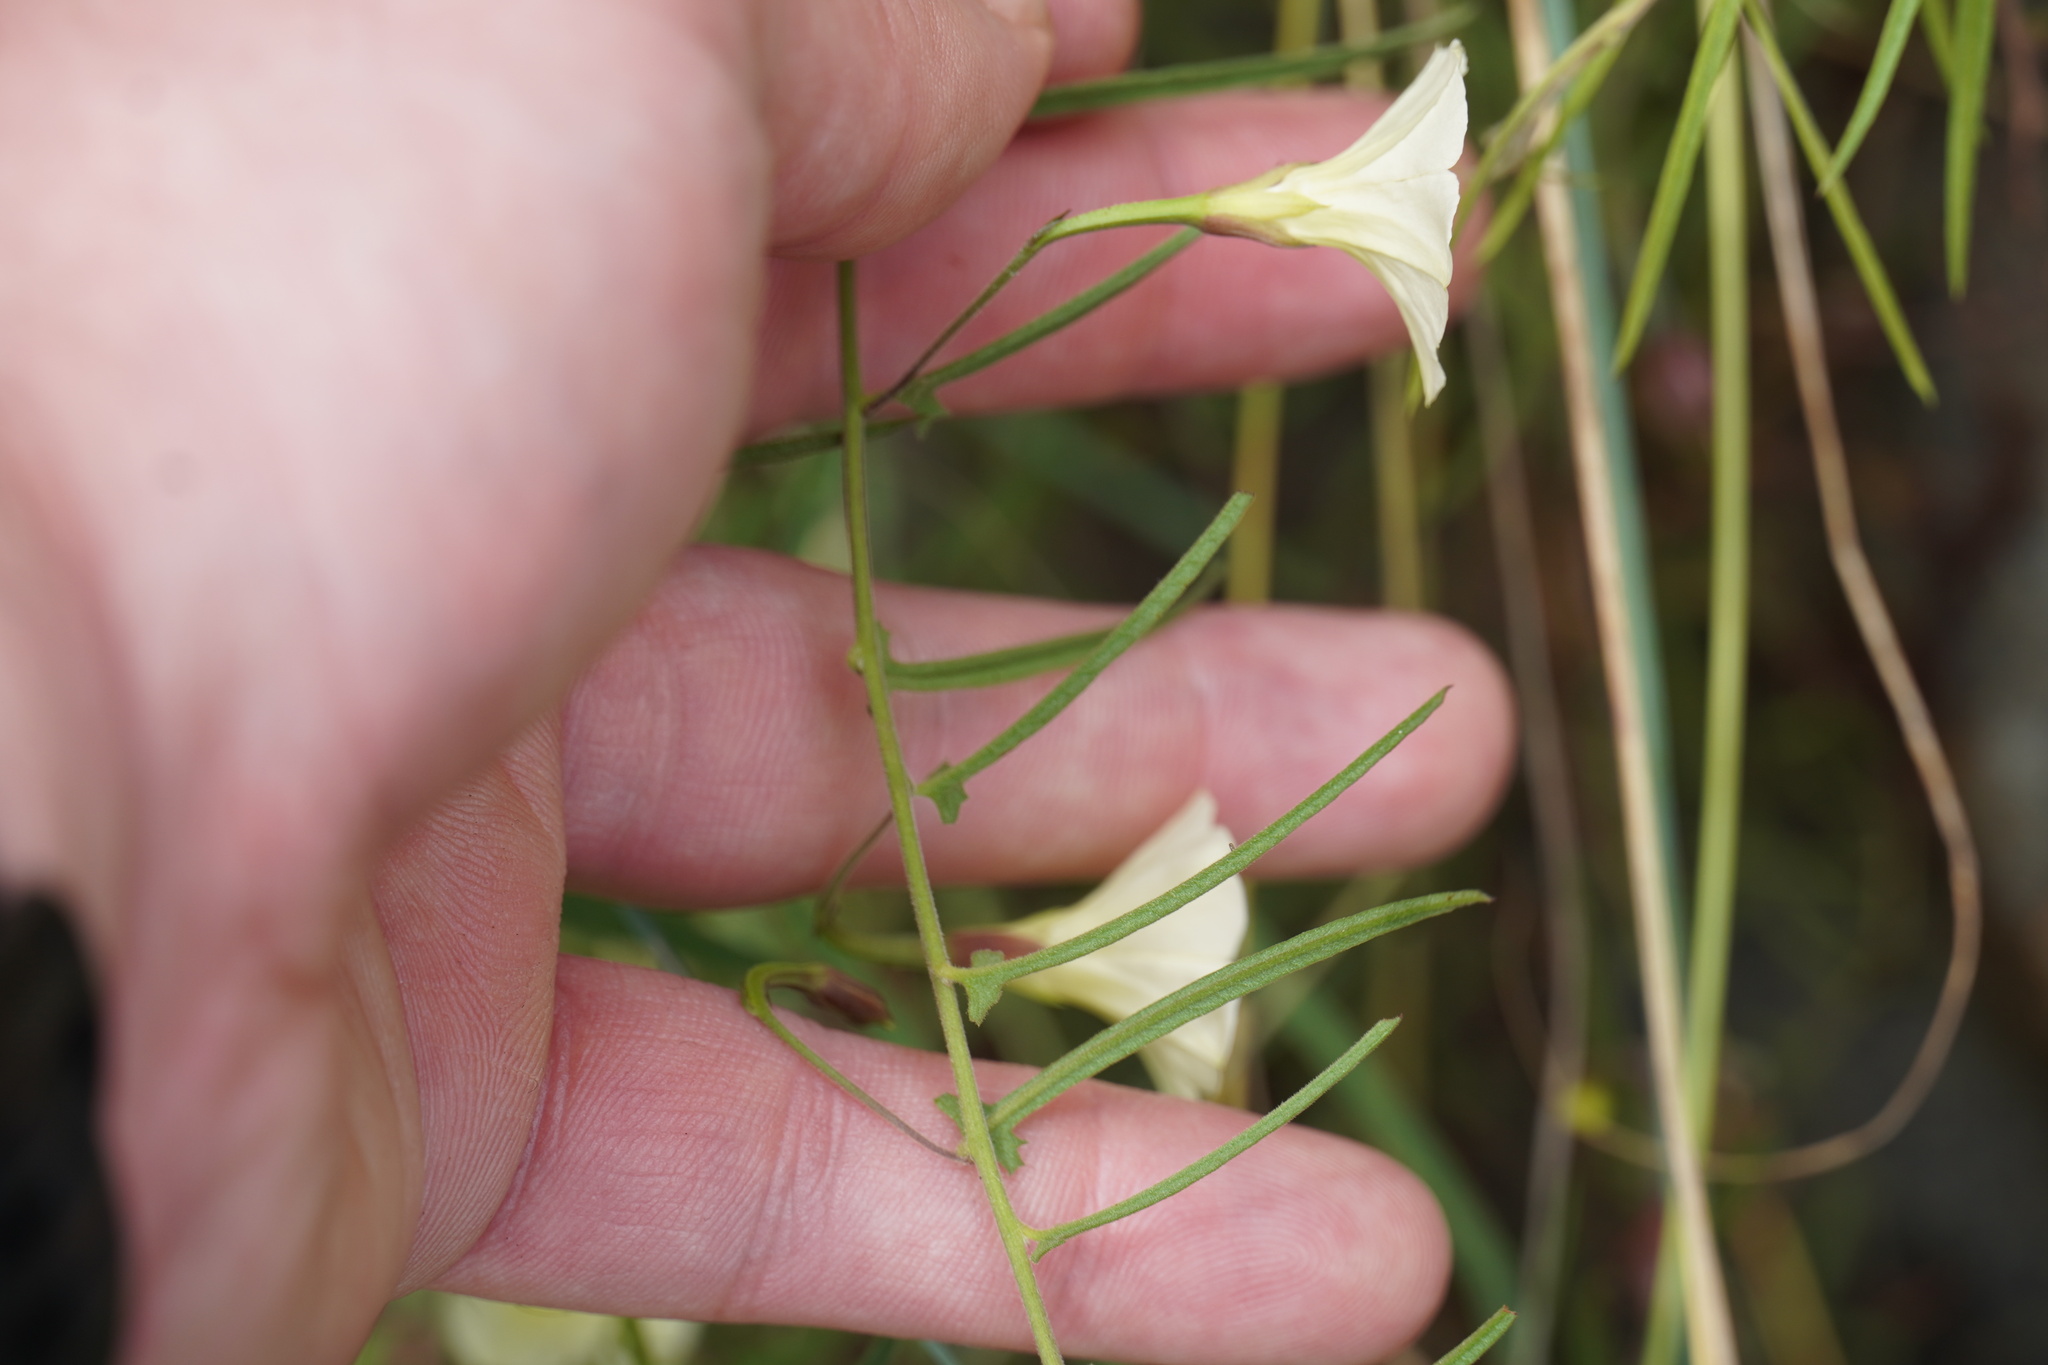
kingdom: Plantae
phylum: Tracheophyta
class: Magnoliopsida
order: Solanales
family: Convolvulaceae
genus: Xenostegia
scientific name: Xenostegia tridentata
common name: African morningvine
